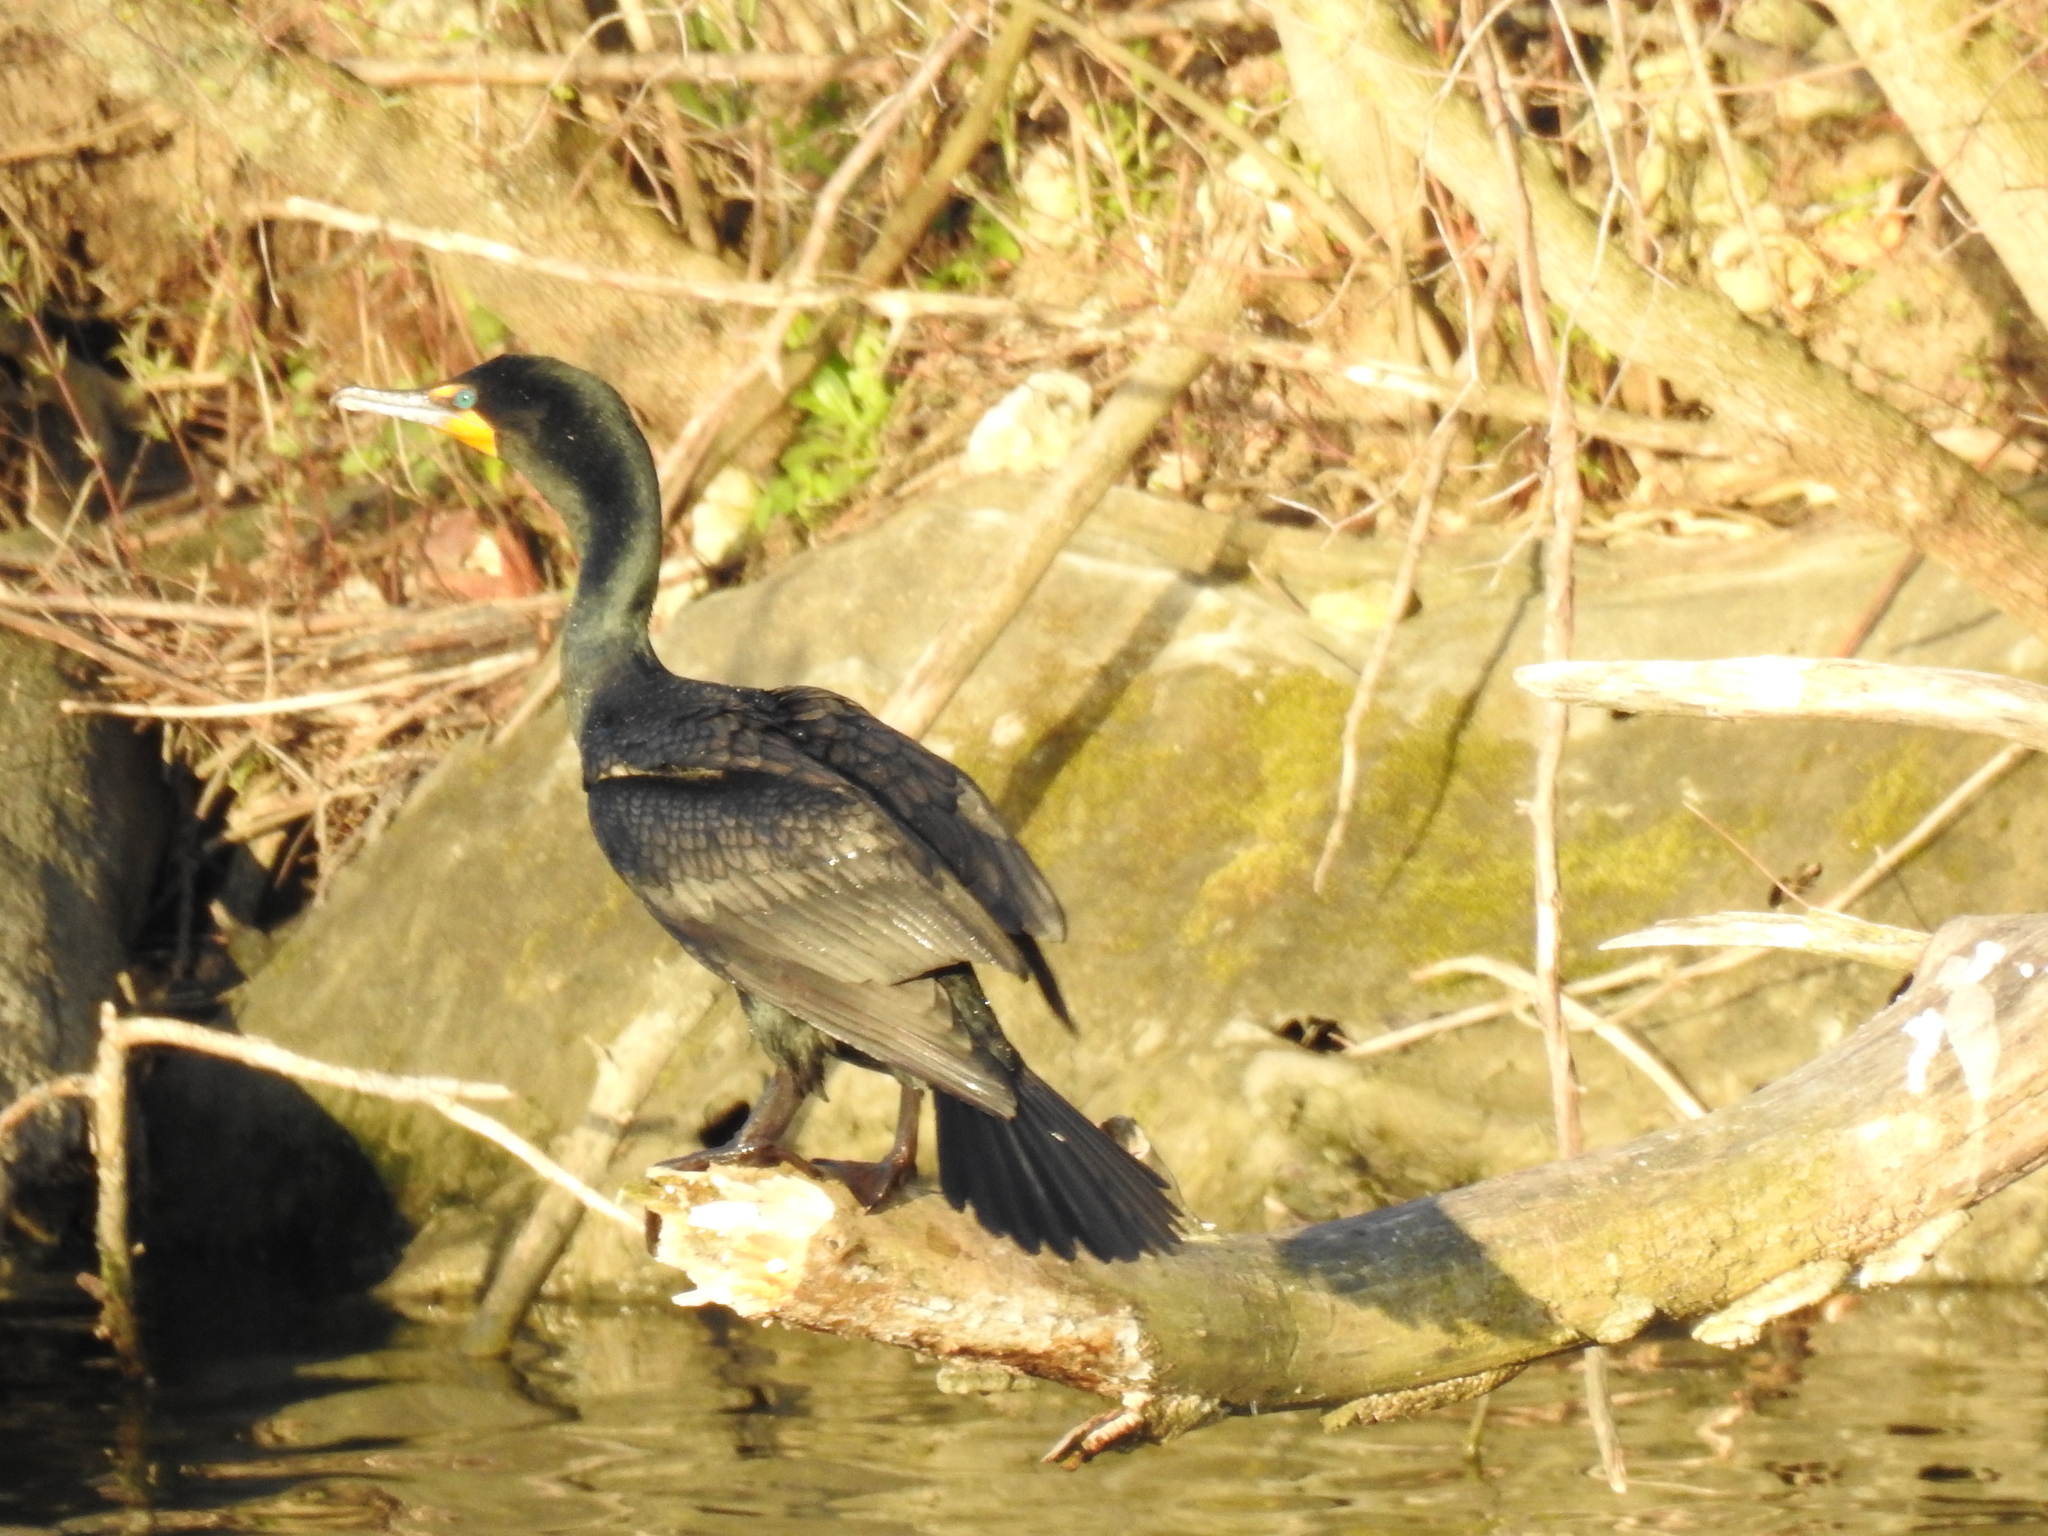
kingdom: Animalia
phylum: Chordata
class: Aves
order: Suliformes
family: Phalacrocoracidae
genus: Phalacrocorax
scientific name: Phalacrocorax auritus
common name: Double-crested cormorant
